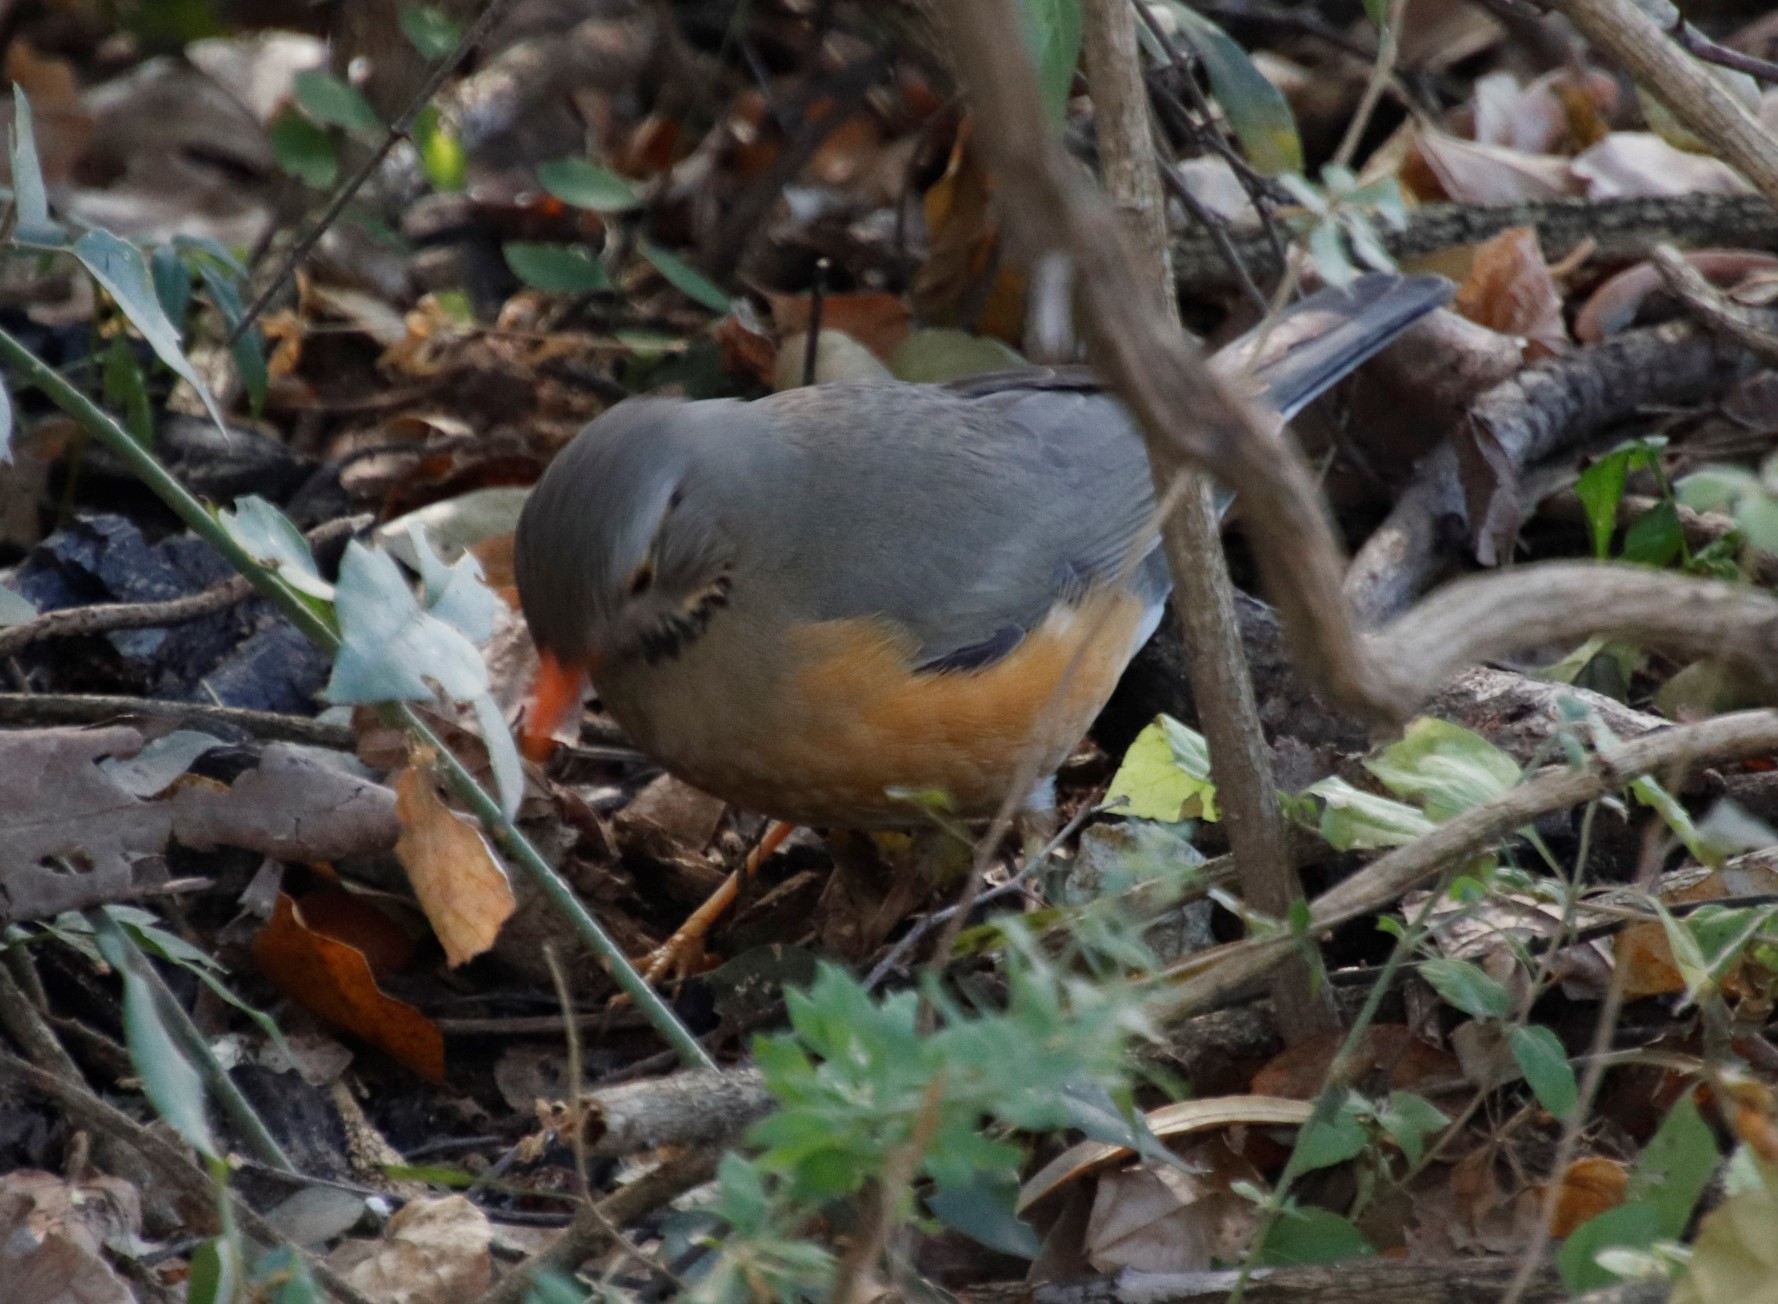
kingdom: Animalia
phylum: Chordata
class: Aves
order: Passeriformes
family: Turdidae
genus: Turdus
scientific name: Turdus libonyana
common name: Kurrichane thrush
